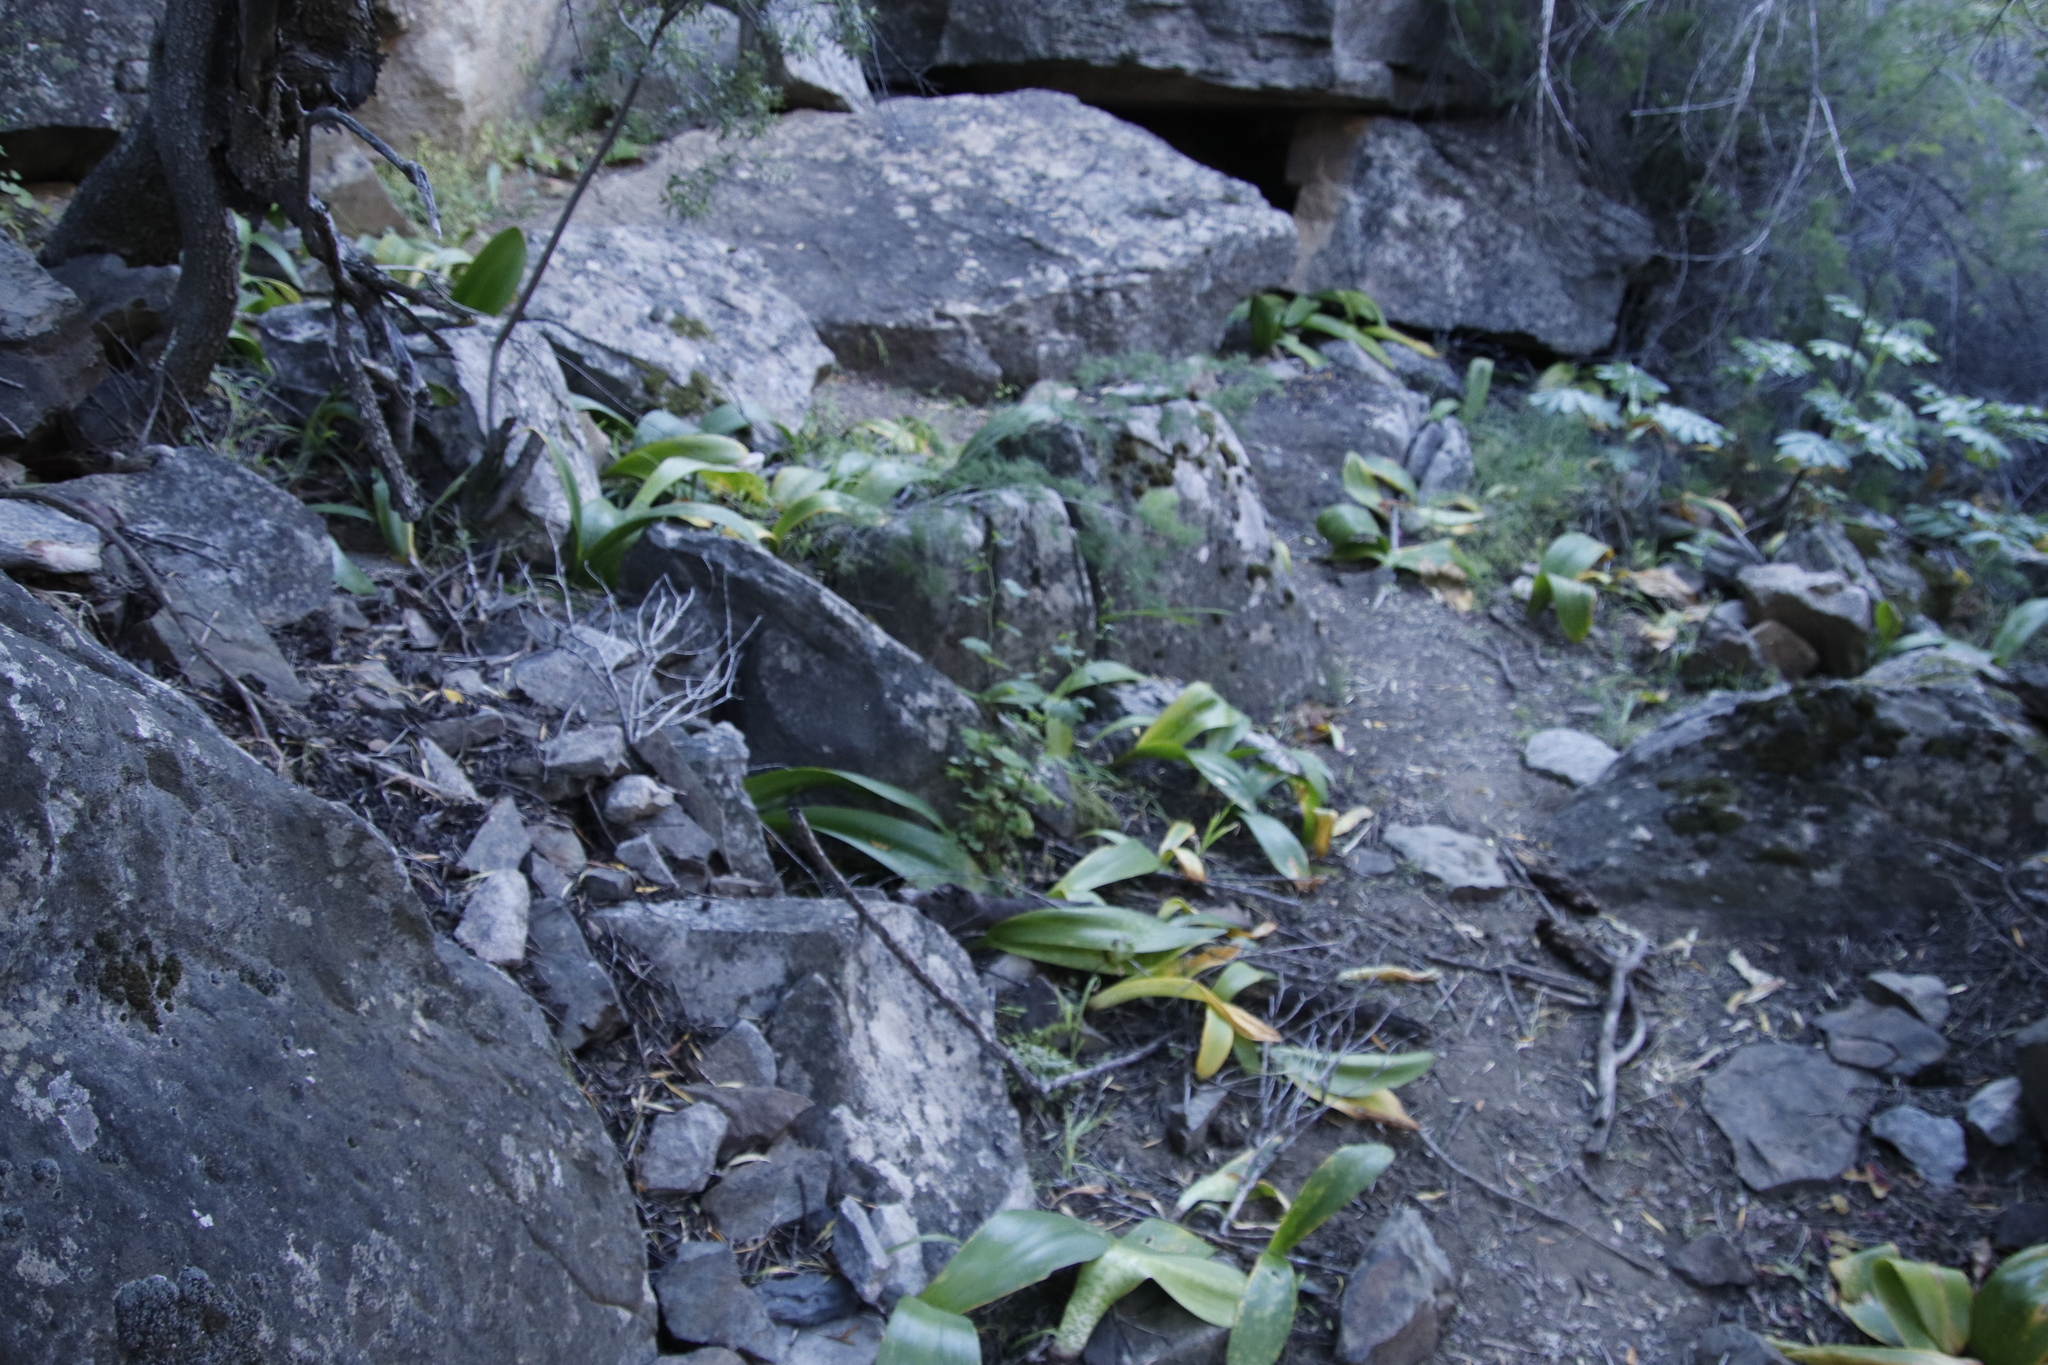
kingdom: Plantae
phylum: Tracheophyta
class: Liliopsida
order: Asparagales
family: Amaryllidaceae
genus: Haemanthus
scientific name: Haemanthus coccineus
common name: Cape-tulip
